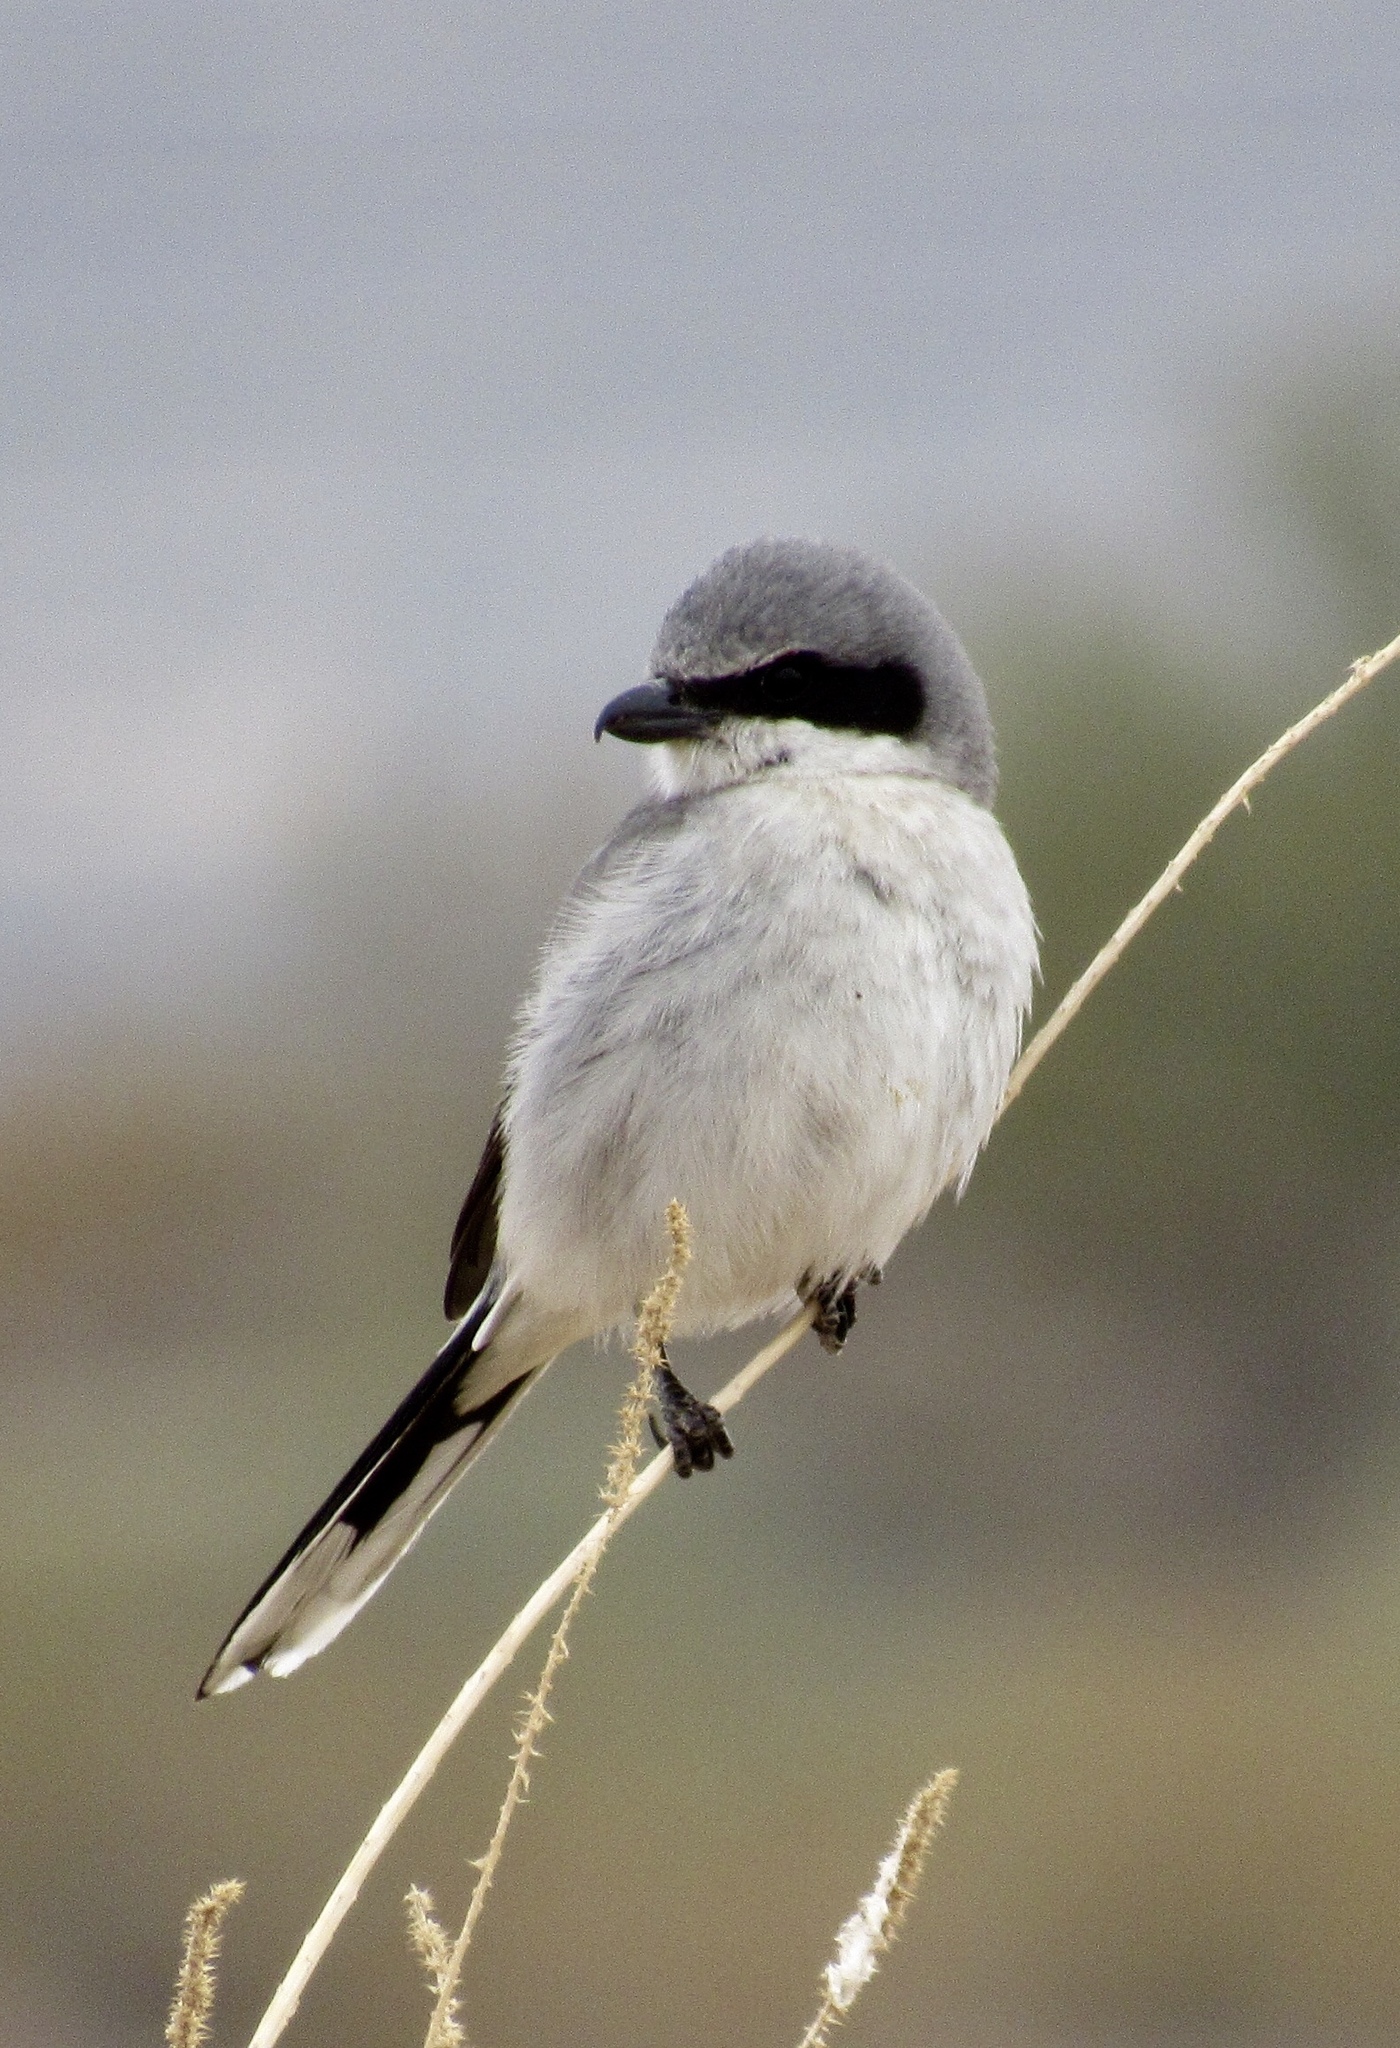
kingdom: Animalia
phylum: Chordata
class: Aves
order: Passeriformes
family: Laniidae
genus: Lanius
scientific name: Lanius ludovicianus
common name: Loggerhead shrike
